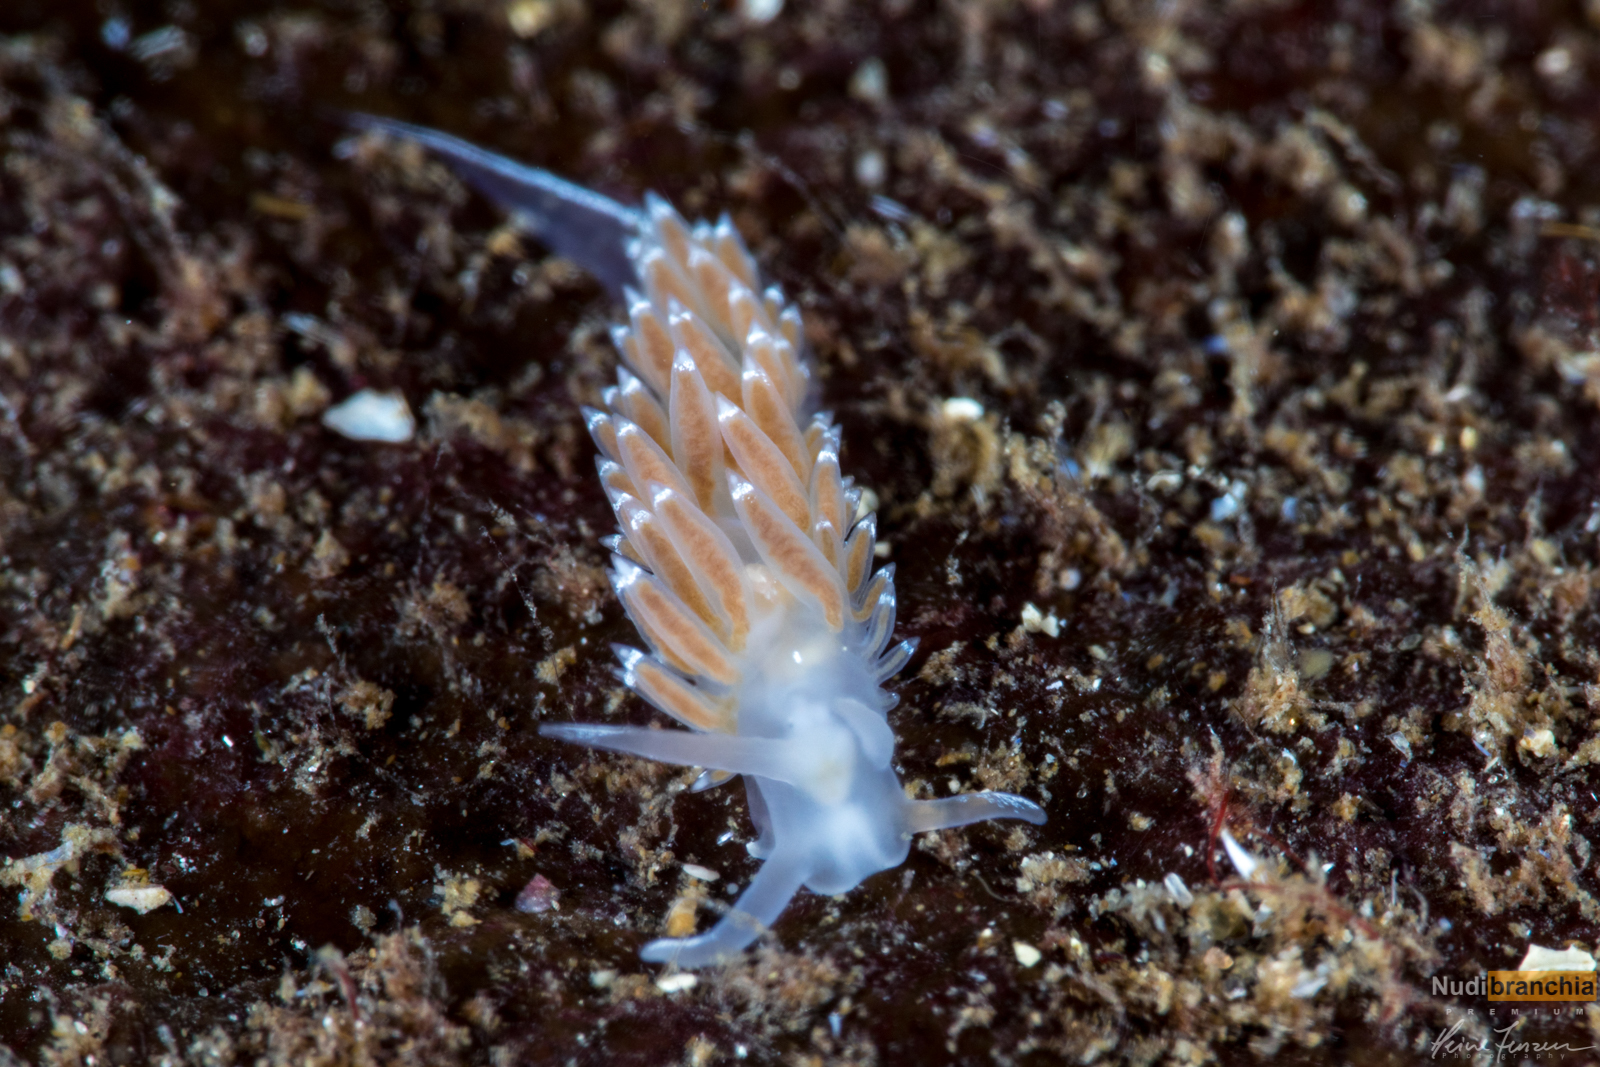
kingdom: Animalia
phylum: Mollusca
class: Gastropoda
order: Nudibranchia
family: Coryphellidae
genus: Coryphella
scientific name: Coryphella verrucosa
